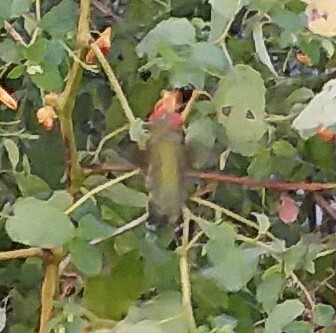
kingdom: Animalia
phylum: Chordata
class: Aves
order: Apodiformes
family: Trochilidae
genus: Archilochus
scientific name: Archilochus colubris
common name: Ruby-throated hummingbird
